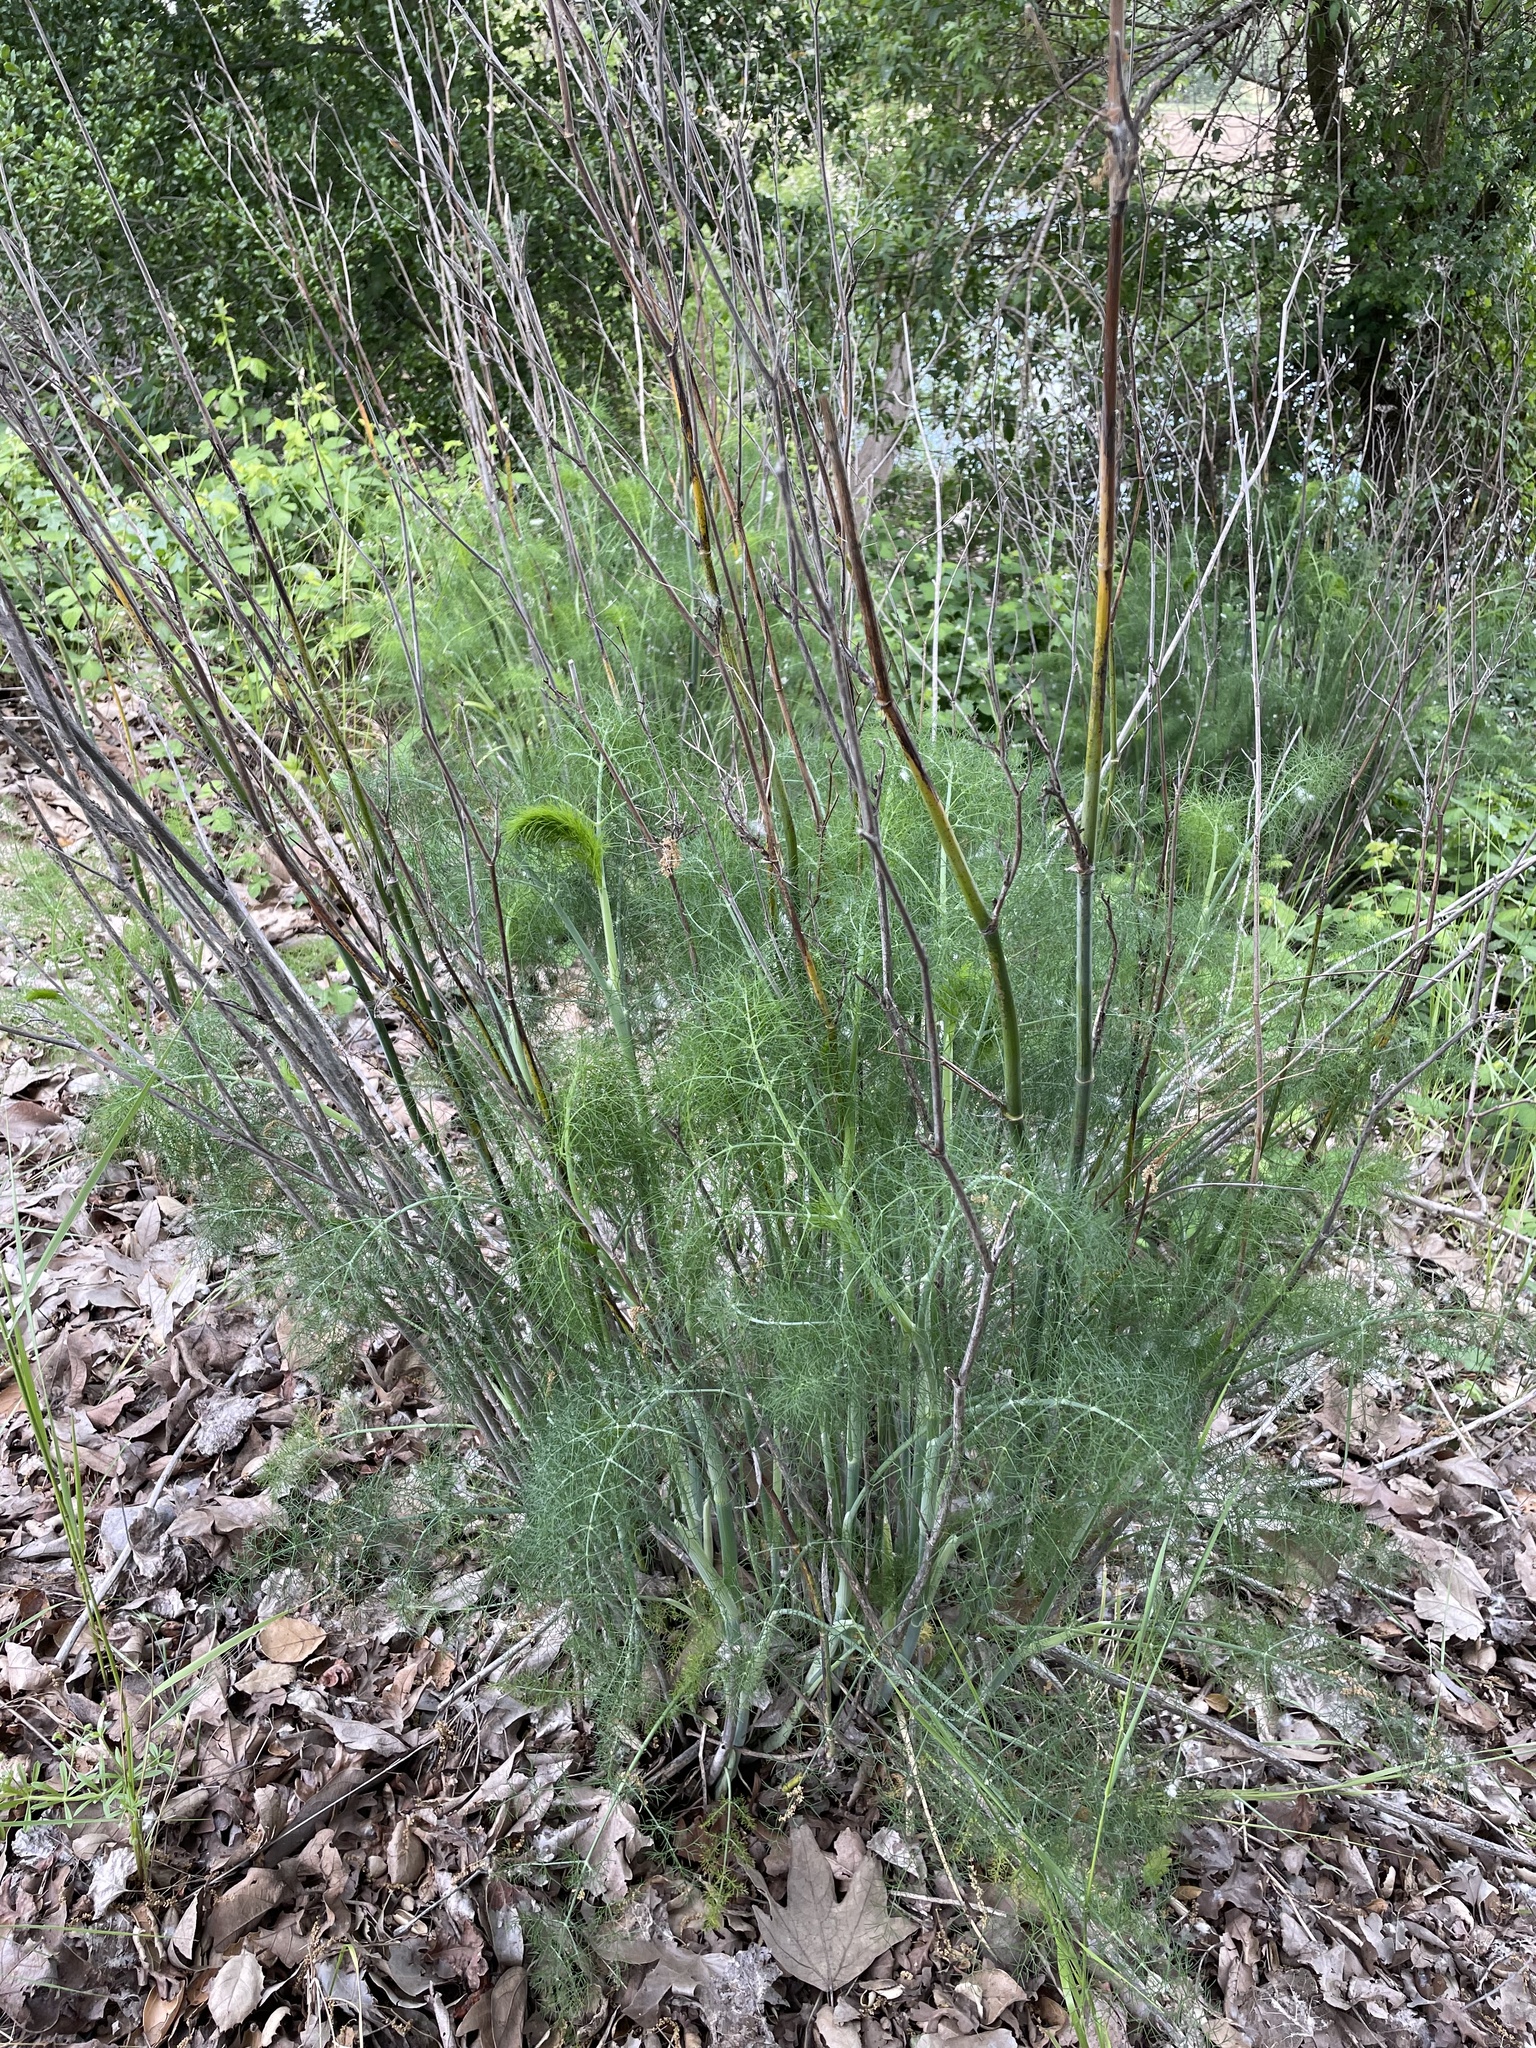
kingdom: Plantae
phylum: Tracheophyta
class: Magnoliopsida
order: Apiales
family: Apiaceae
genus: Foeniculum
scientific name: Foeniculum vulgare
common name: Fennel
